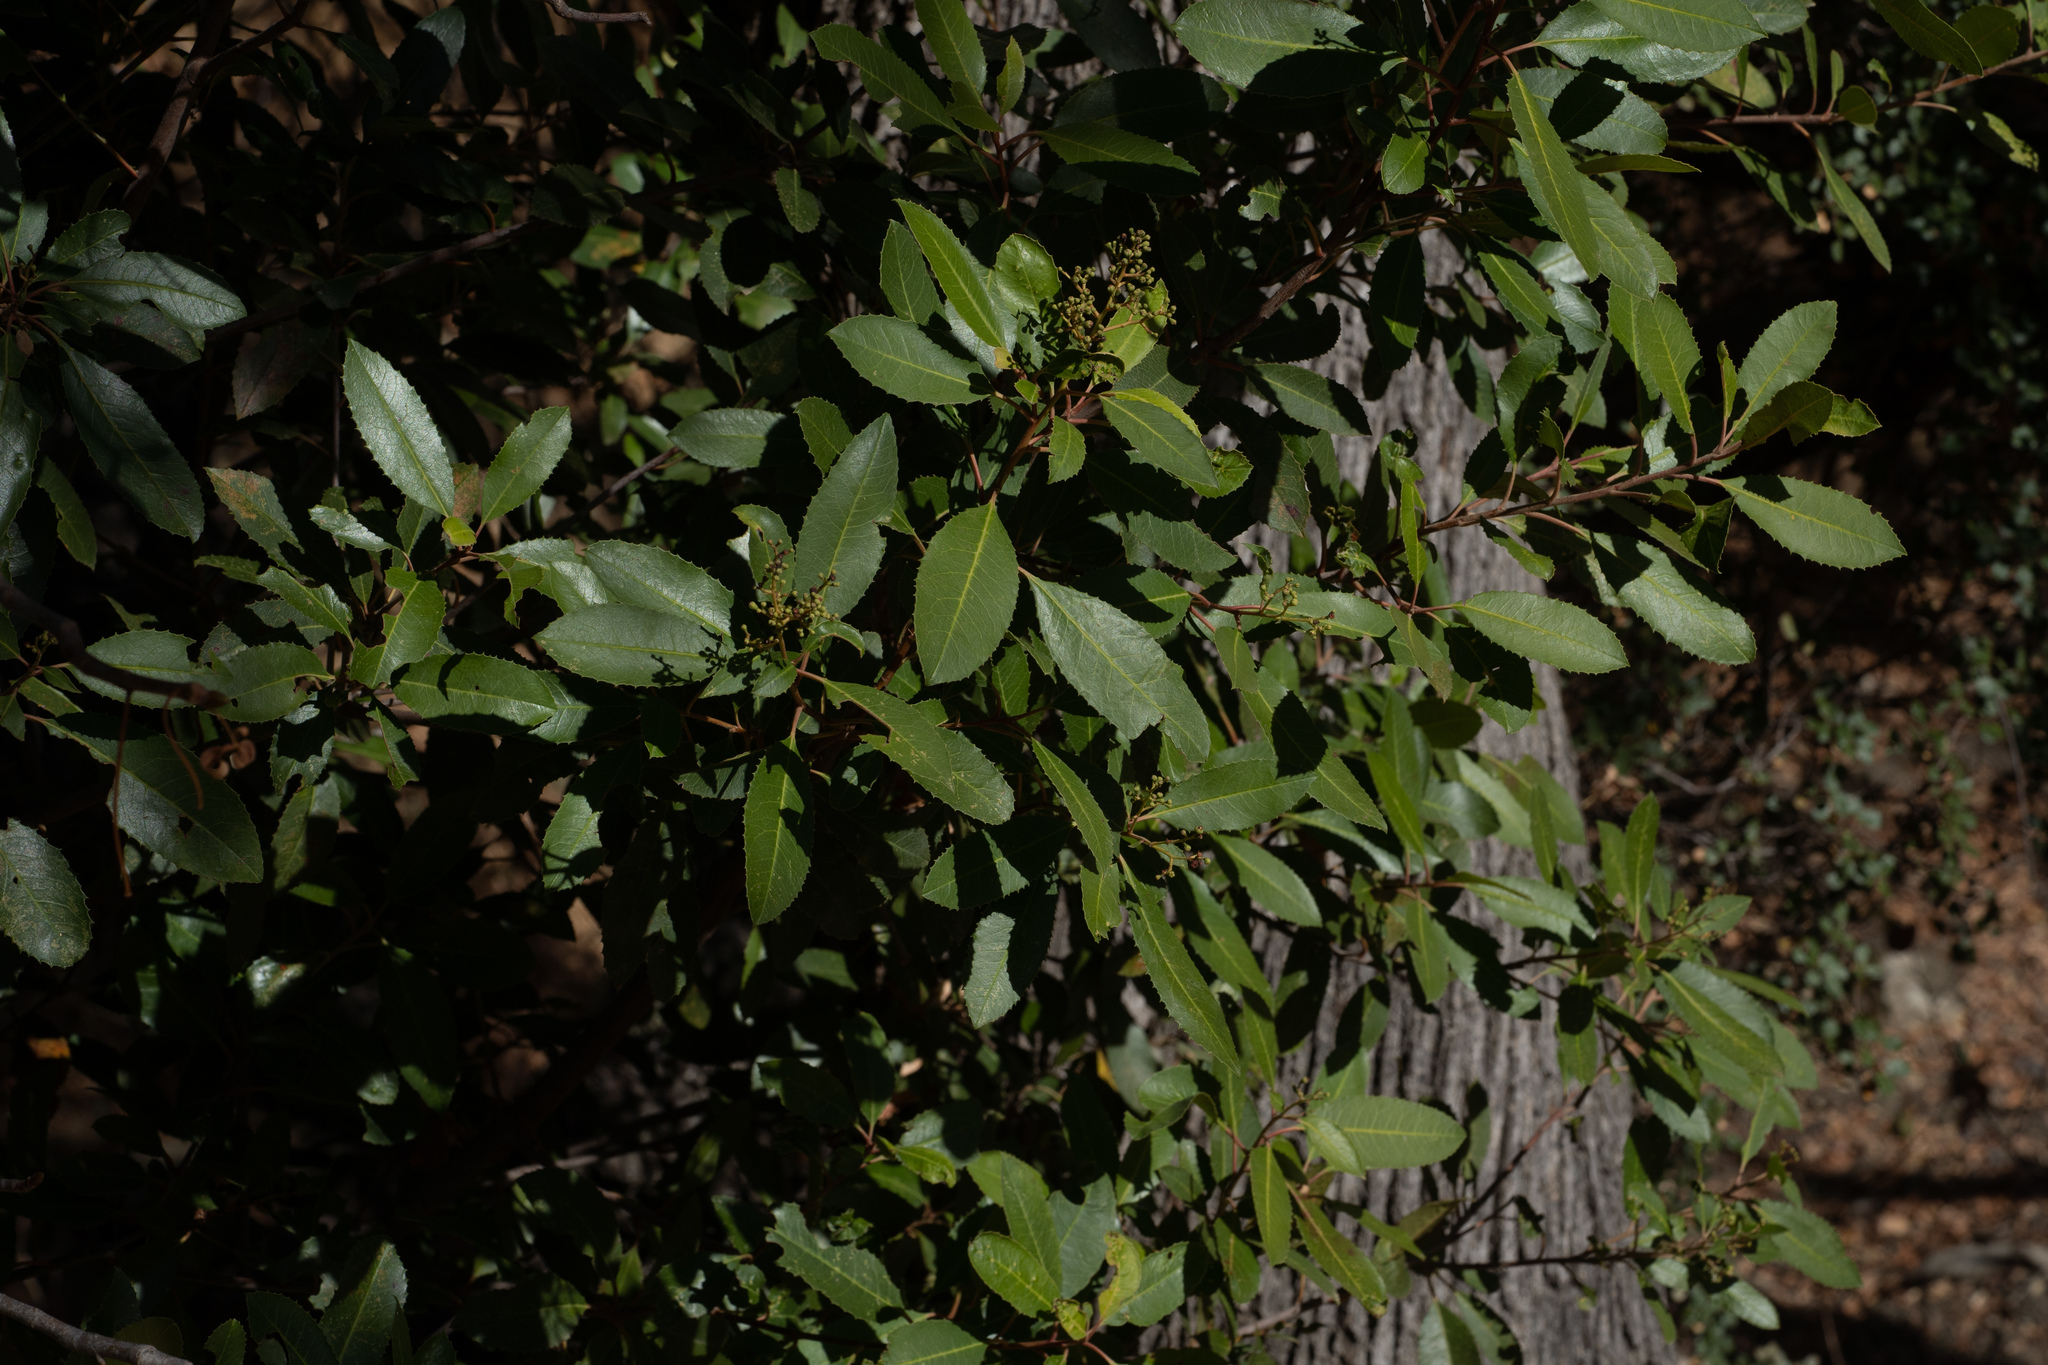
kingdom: Plantae
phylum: Tracheophyta
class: Magnoliopsida
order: Rosales
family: Rosaceae
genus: Heteromeles
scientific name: Heteromeles arbutifolia
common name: California-holly
